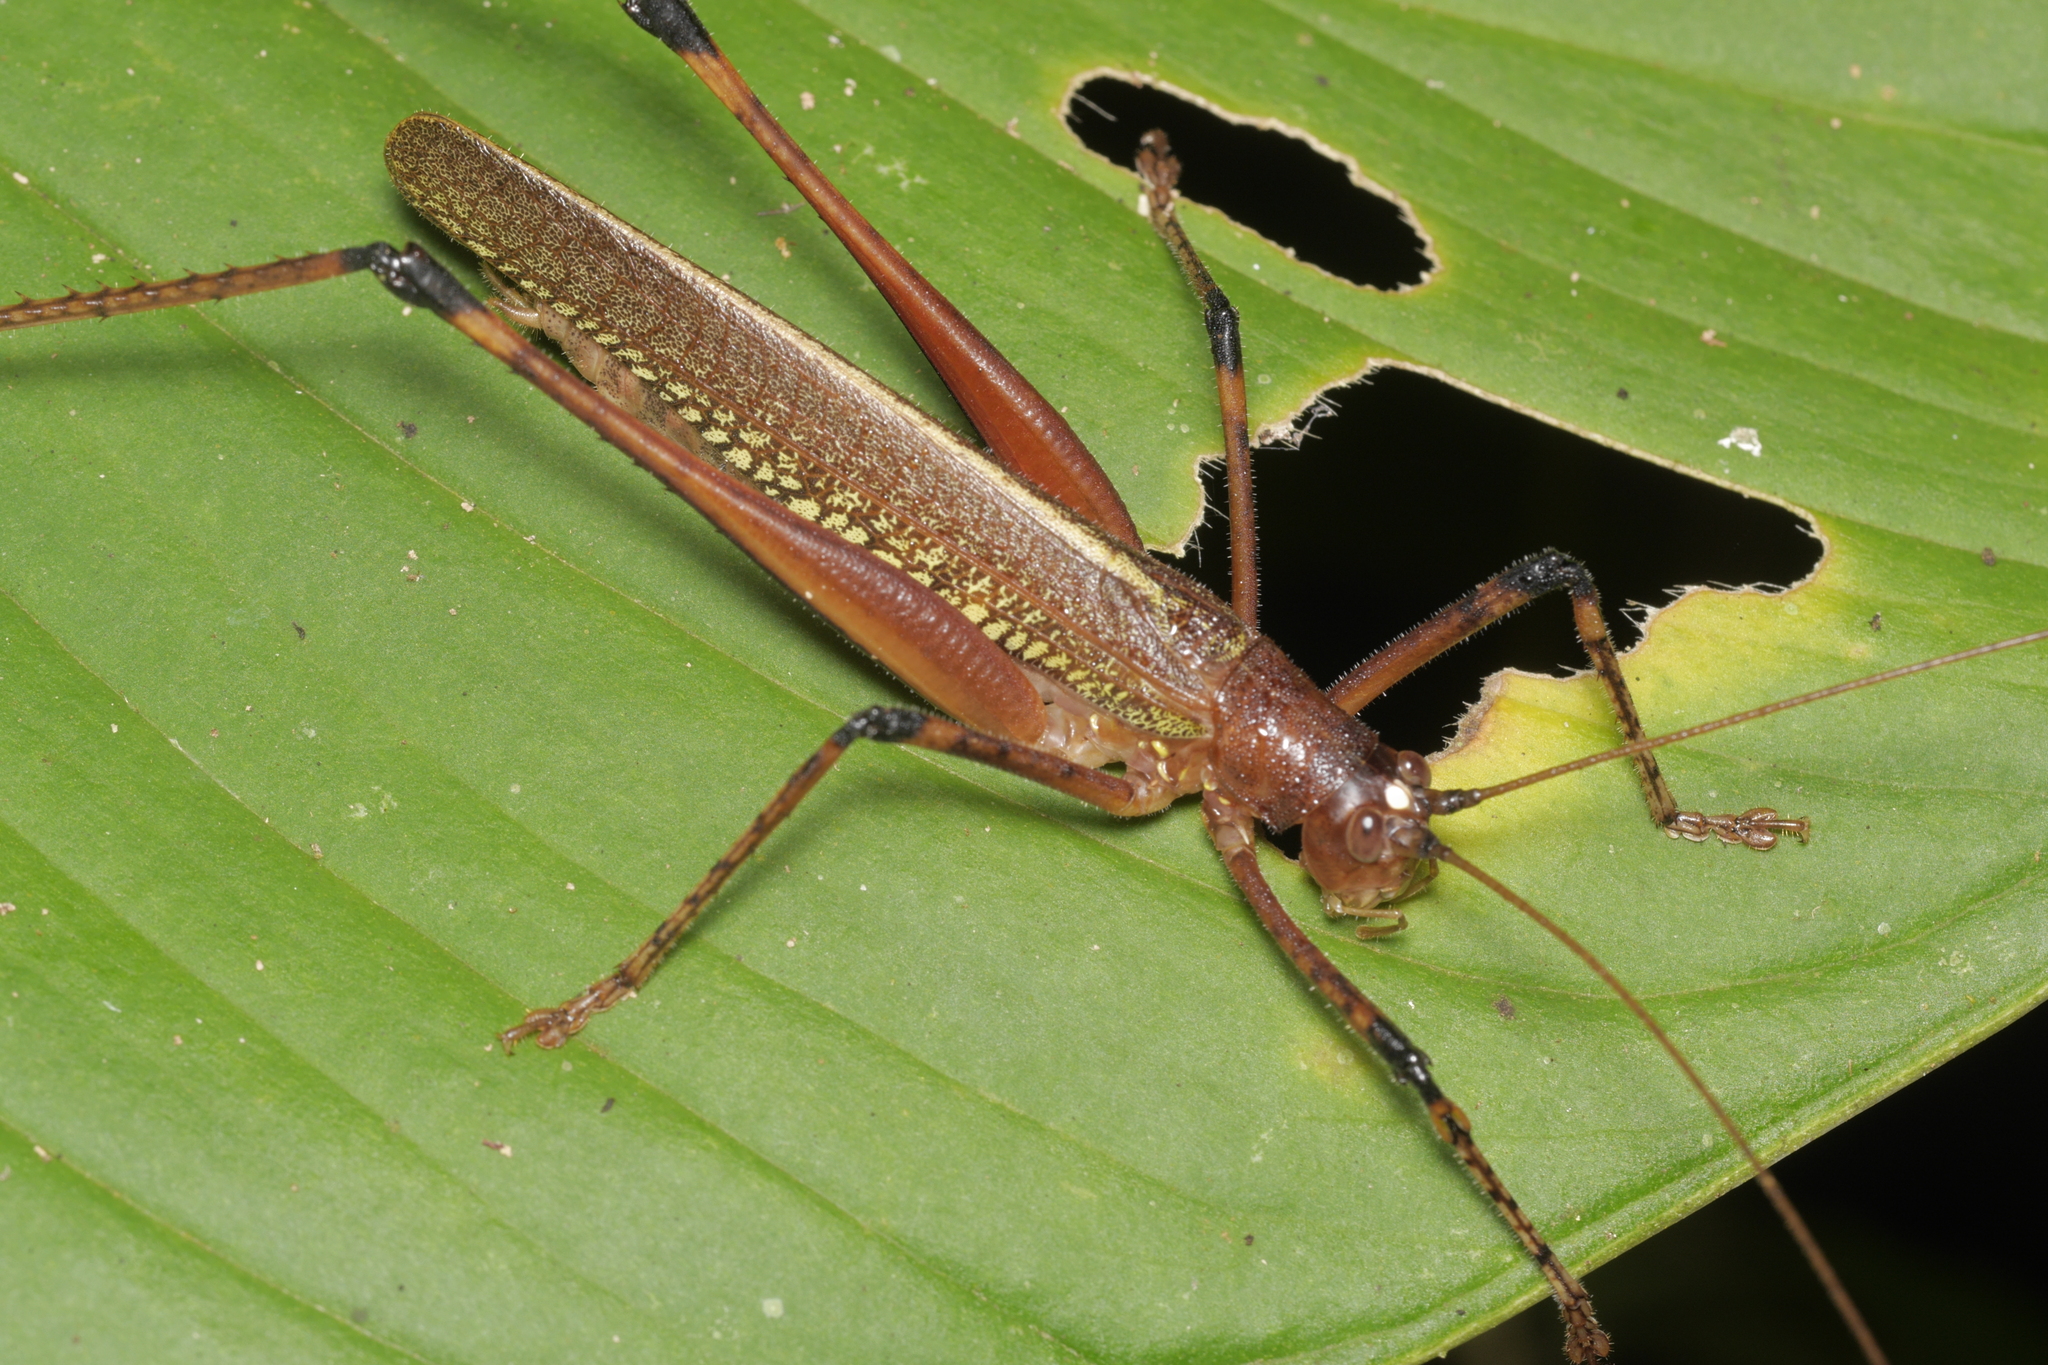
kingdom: Animalia
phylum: Arthropoda
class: Insecta
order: Orthoptera
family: Tettigoniidae
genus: Ischnomela
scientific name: Ischnomela gracilis
